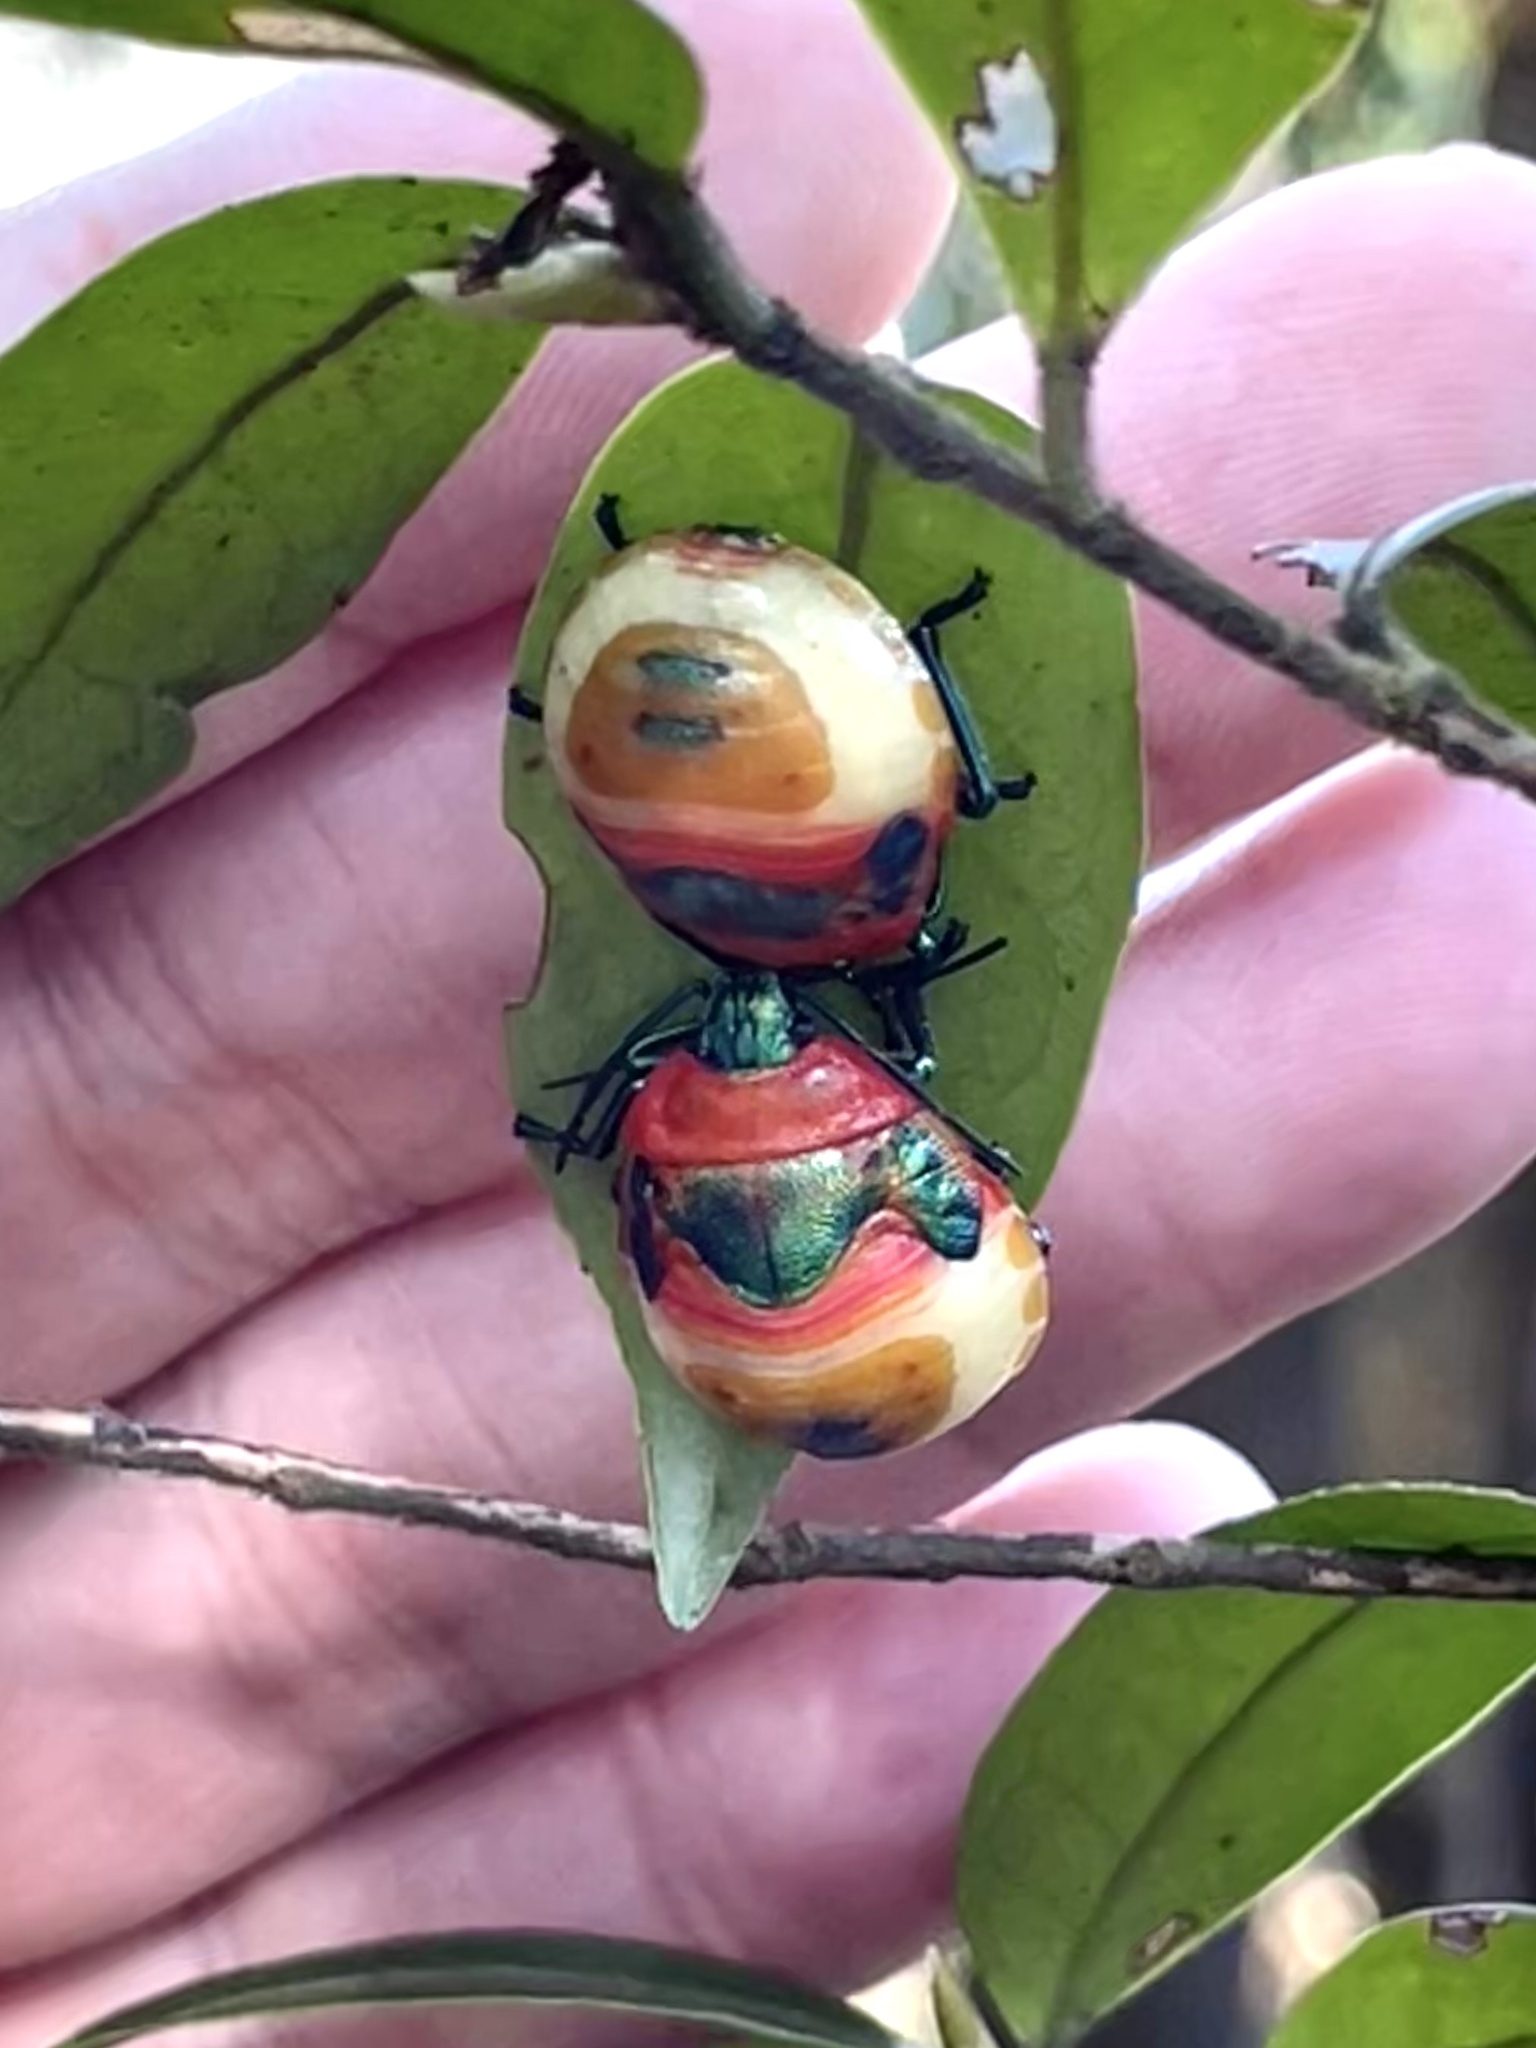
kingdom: Animalia
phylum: Arthropoda
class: Insecta
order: Hemiptera
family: Scutelleridae
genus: Poecilocoris
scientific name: Poecilocoris
